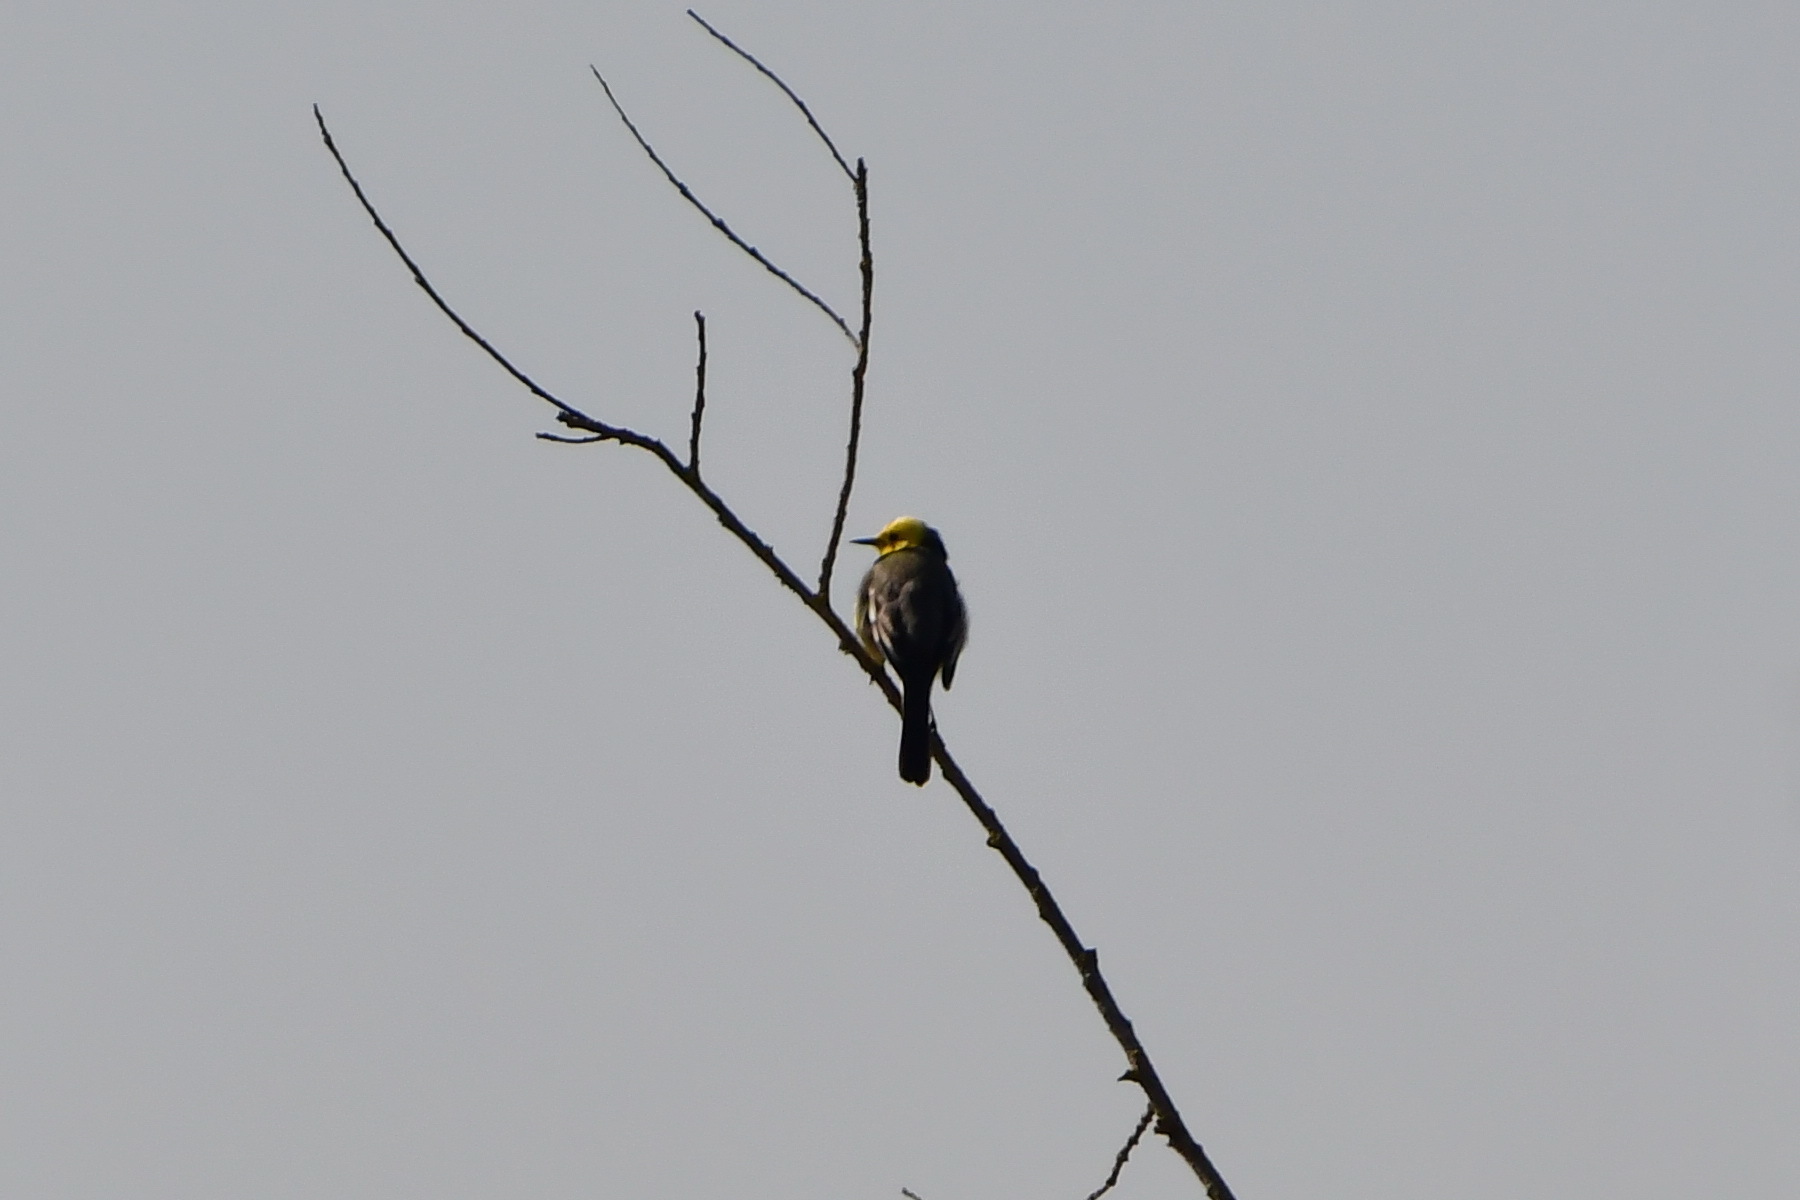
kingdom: Animalia
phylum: Chordata
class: Aves
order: Passeriformes
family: Motacillidae
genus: Motacilla
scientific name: Motacilla citreola
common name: Citrine wagtail
